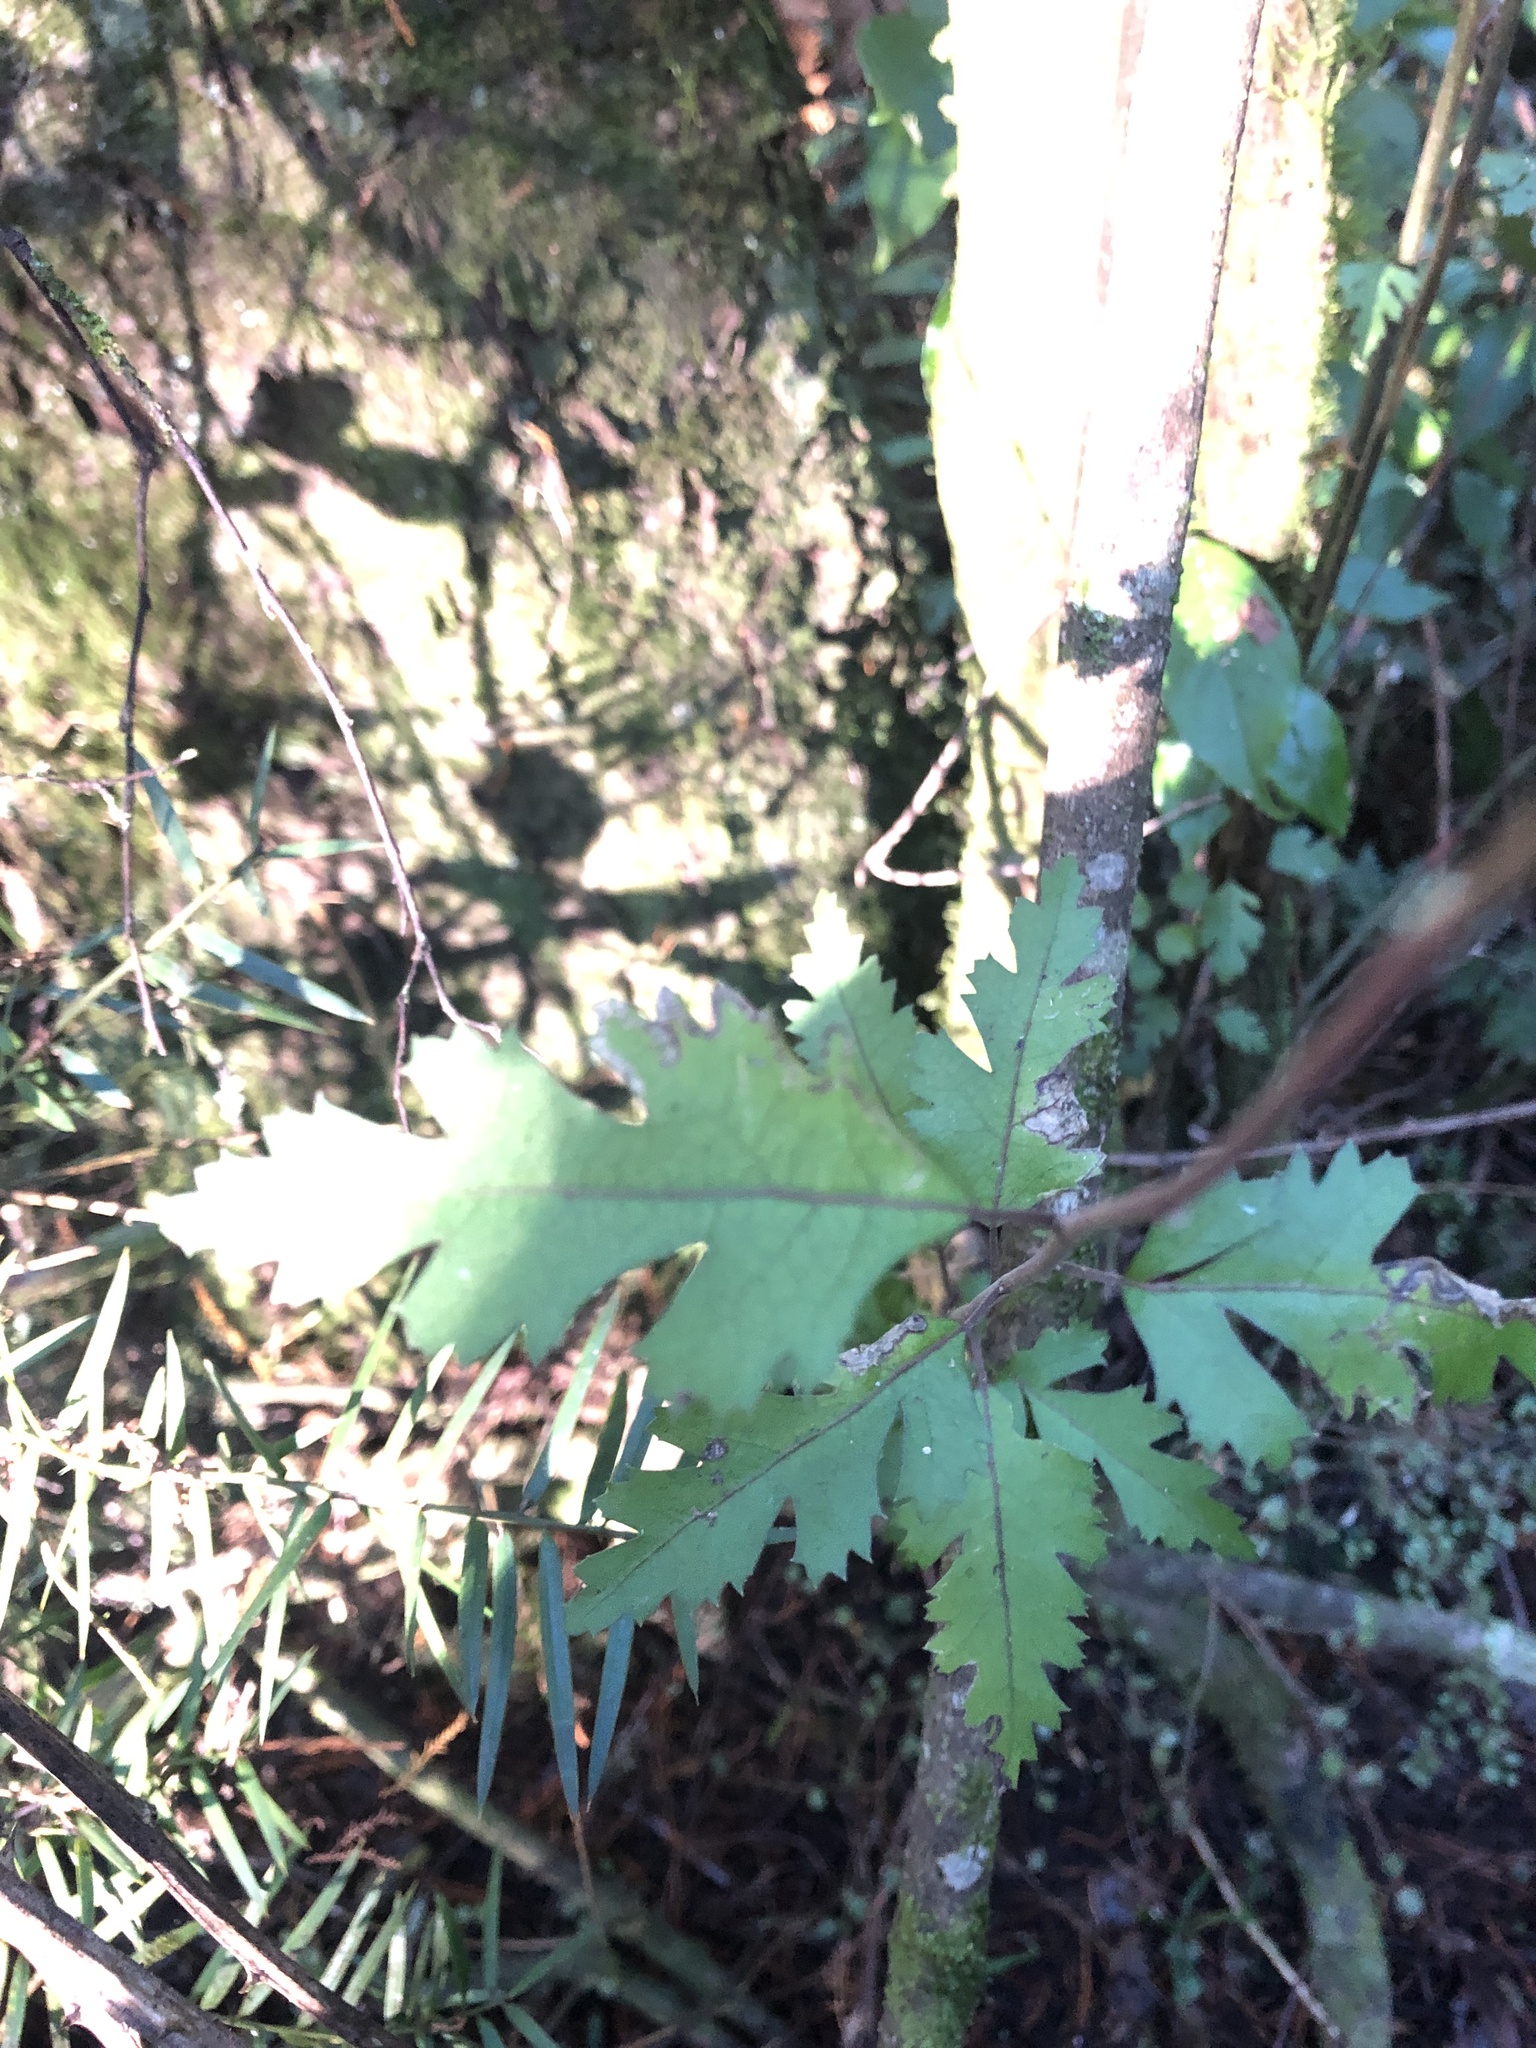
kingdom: Plantae
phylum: Tracheophyta
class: Magnoliopsida
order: Malvales
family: Malvaceae
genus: Plagianthus
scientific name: Plagianthus regius
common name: Manatu
